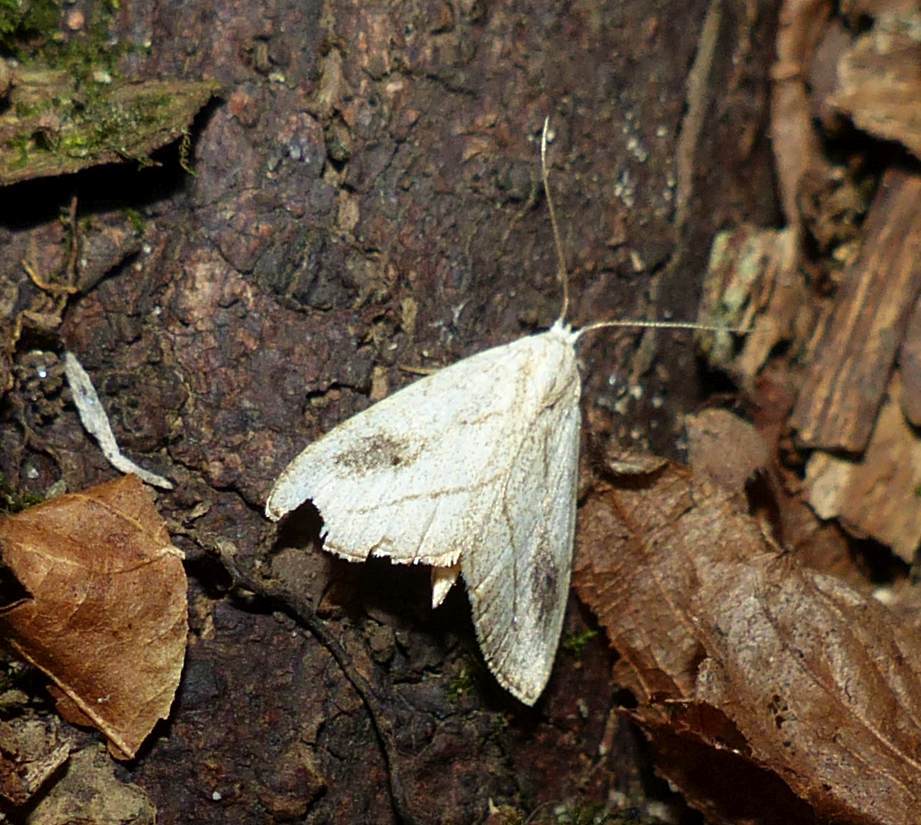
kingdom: Animalia
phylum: Arthropoda
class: Insecta
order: Lepidoptera
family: Erebidae
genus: Rivula
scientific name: Rivula propinqualis
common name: Spotted grass moth
